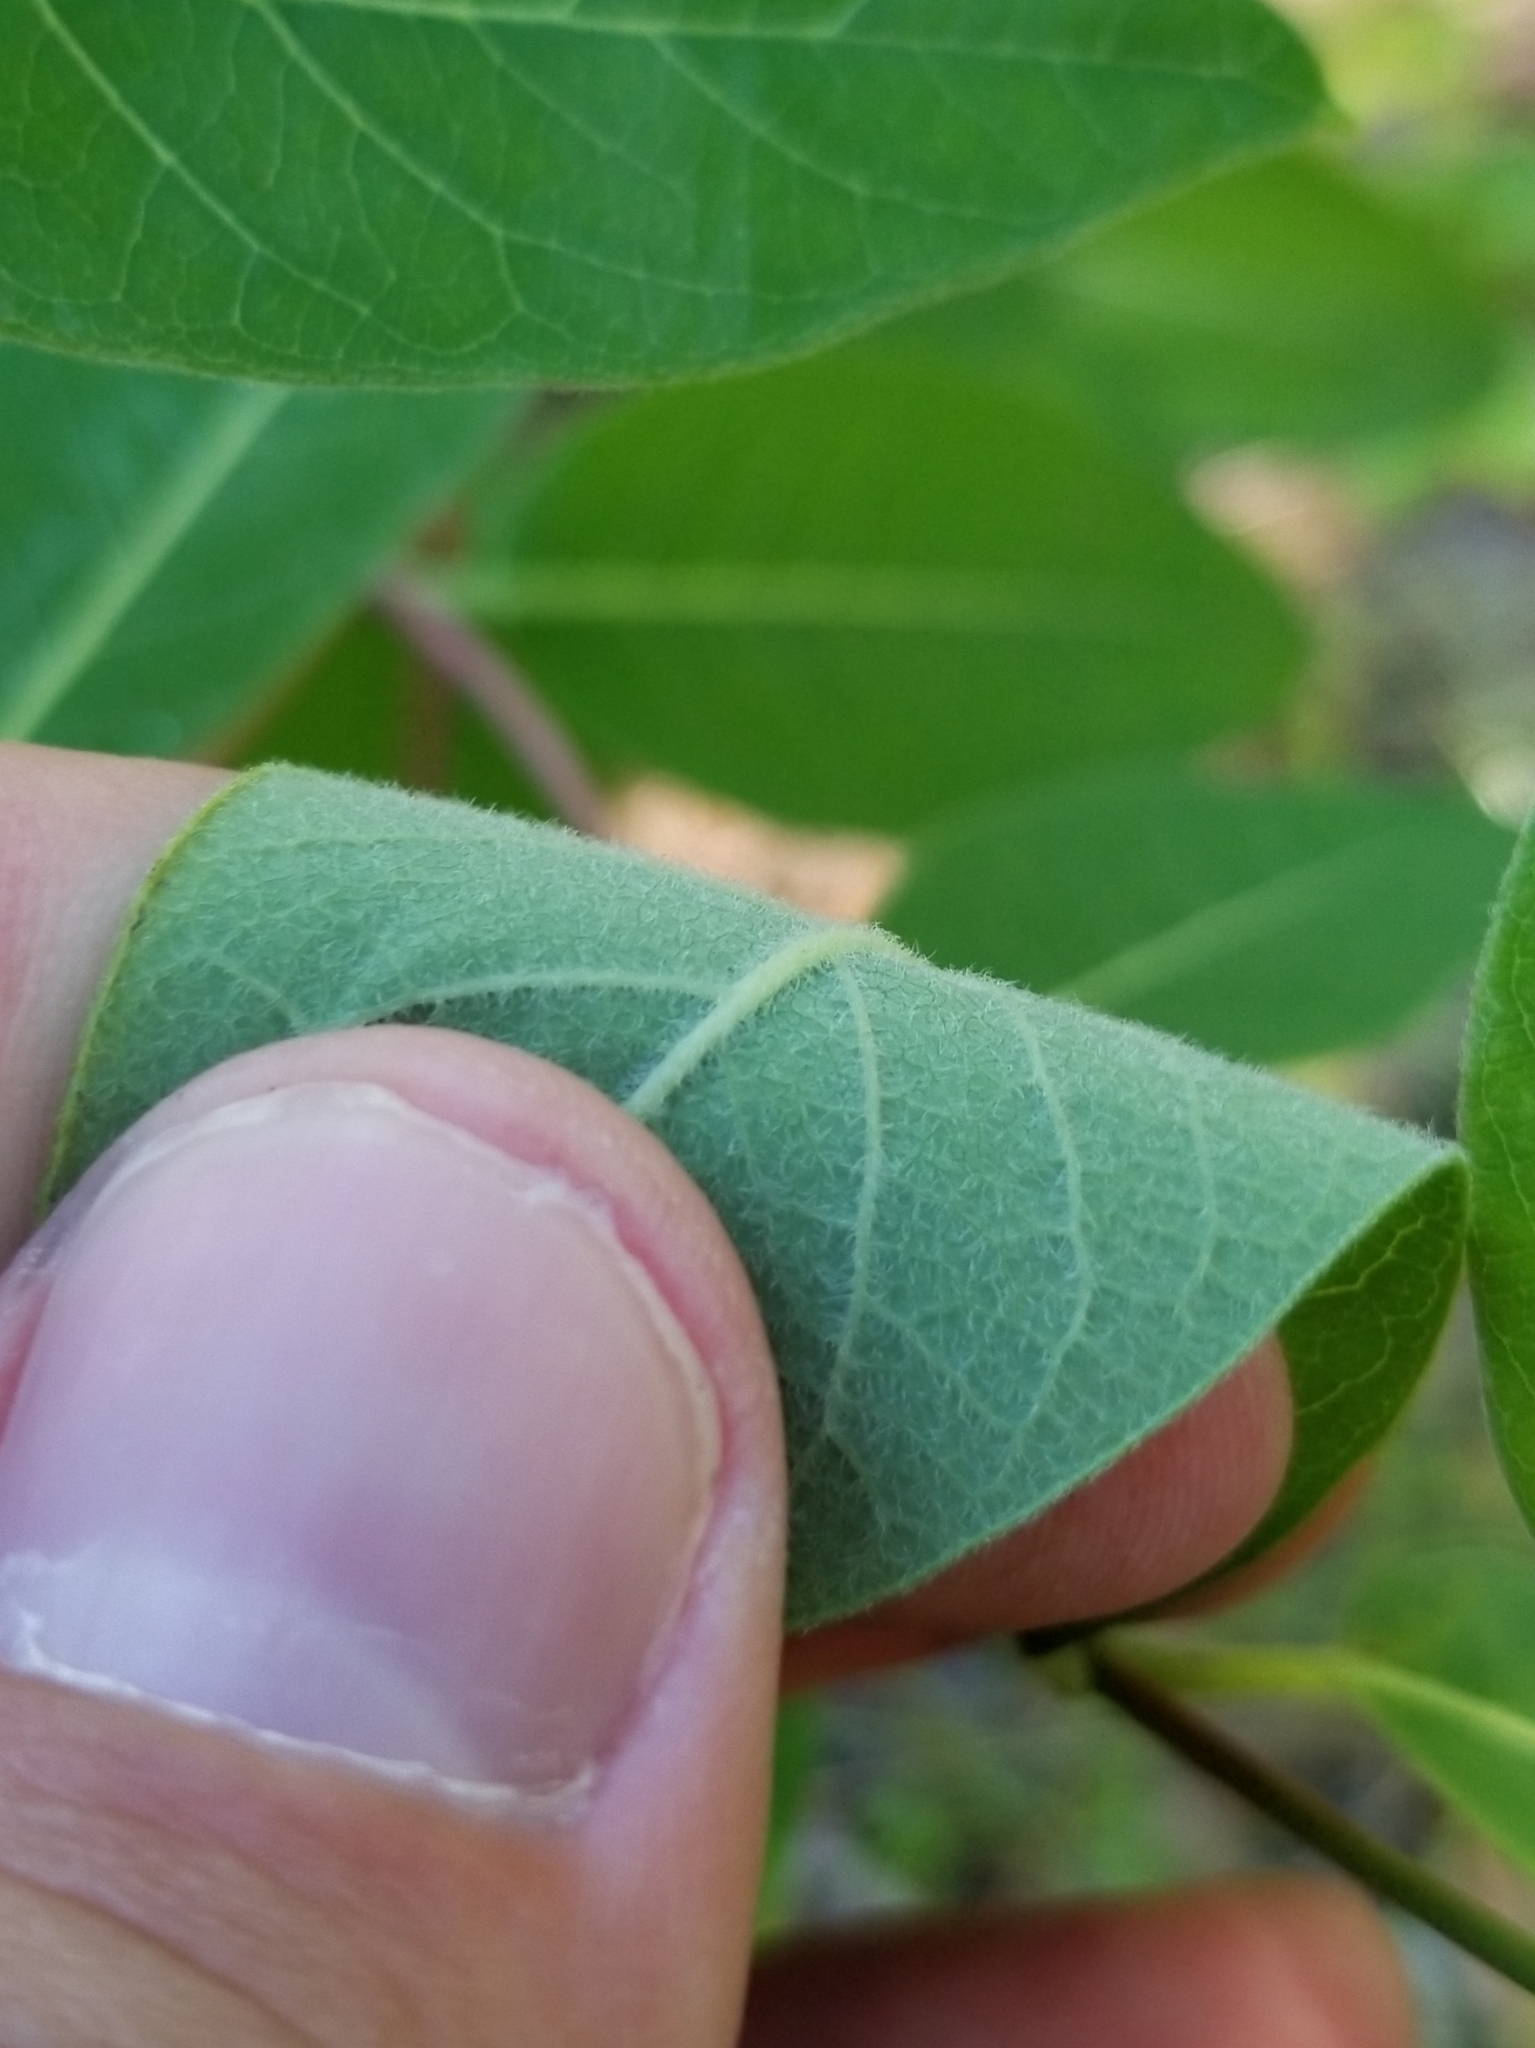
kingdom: Plantae
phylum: Tracheophyta
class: Magnoliopsida
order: Gentianales
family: Apocynaceae
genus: Apocynum
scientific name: Apocynum cannabinum
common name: Hemp dogbane
